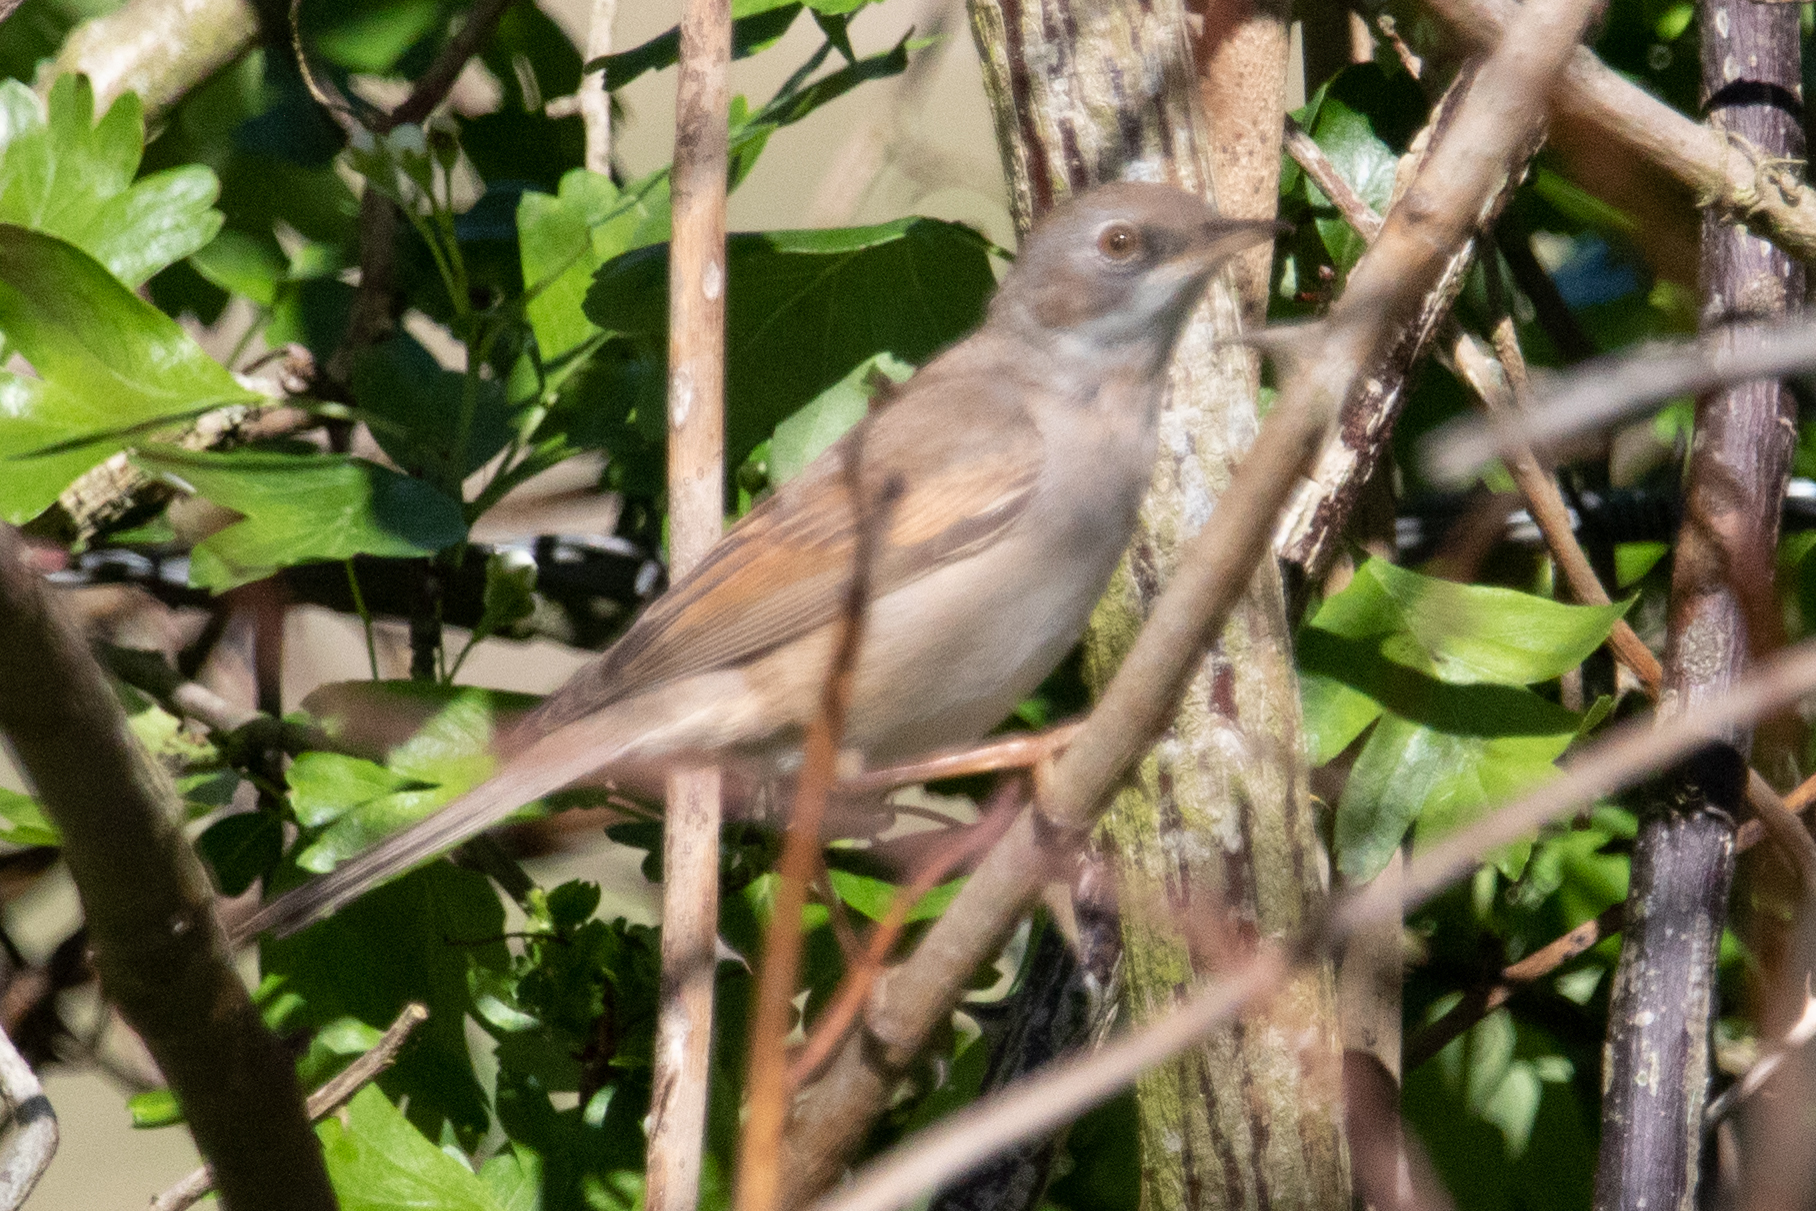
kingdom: Animalia
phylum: Chordata
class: Aves
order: Passeriformes
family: Sylviidae
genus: Sylvia
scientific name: Sylvia communis
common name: Common whitethroat
